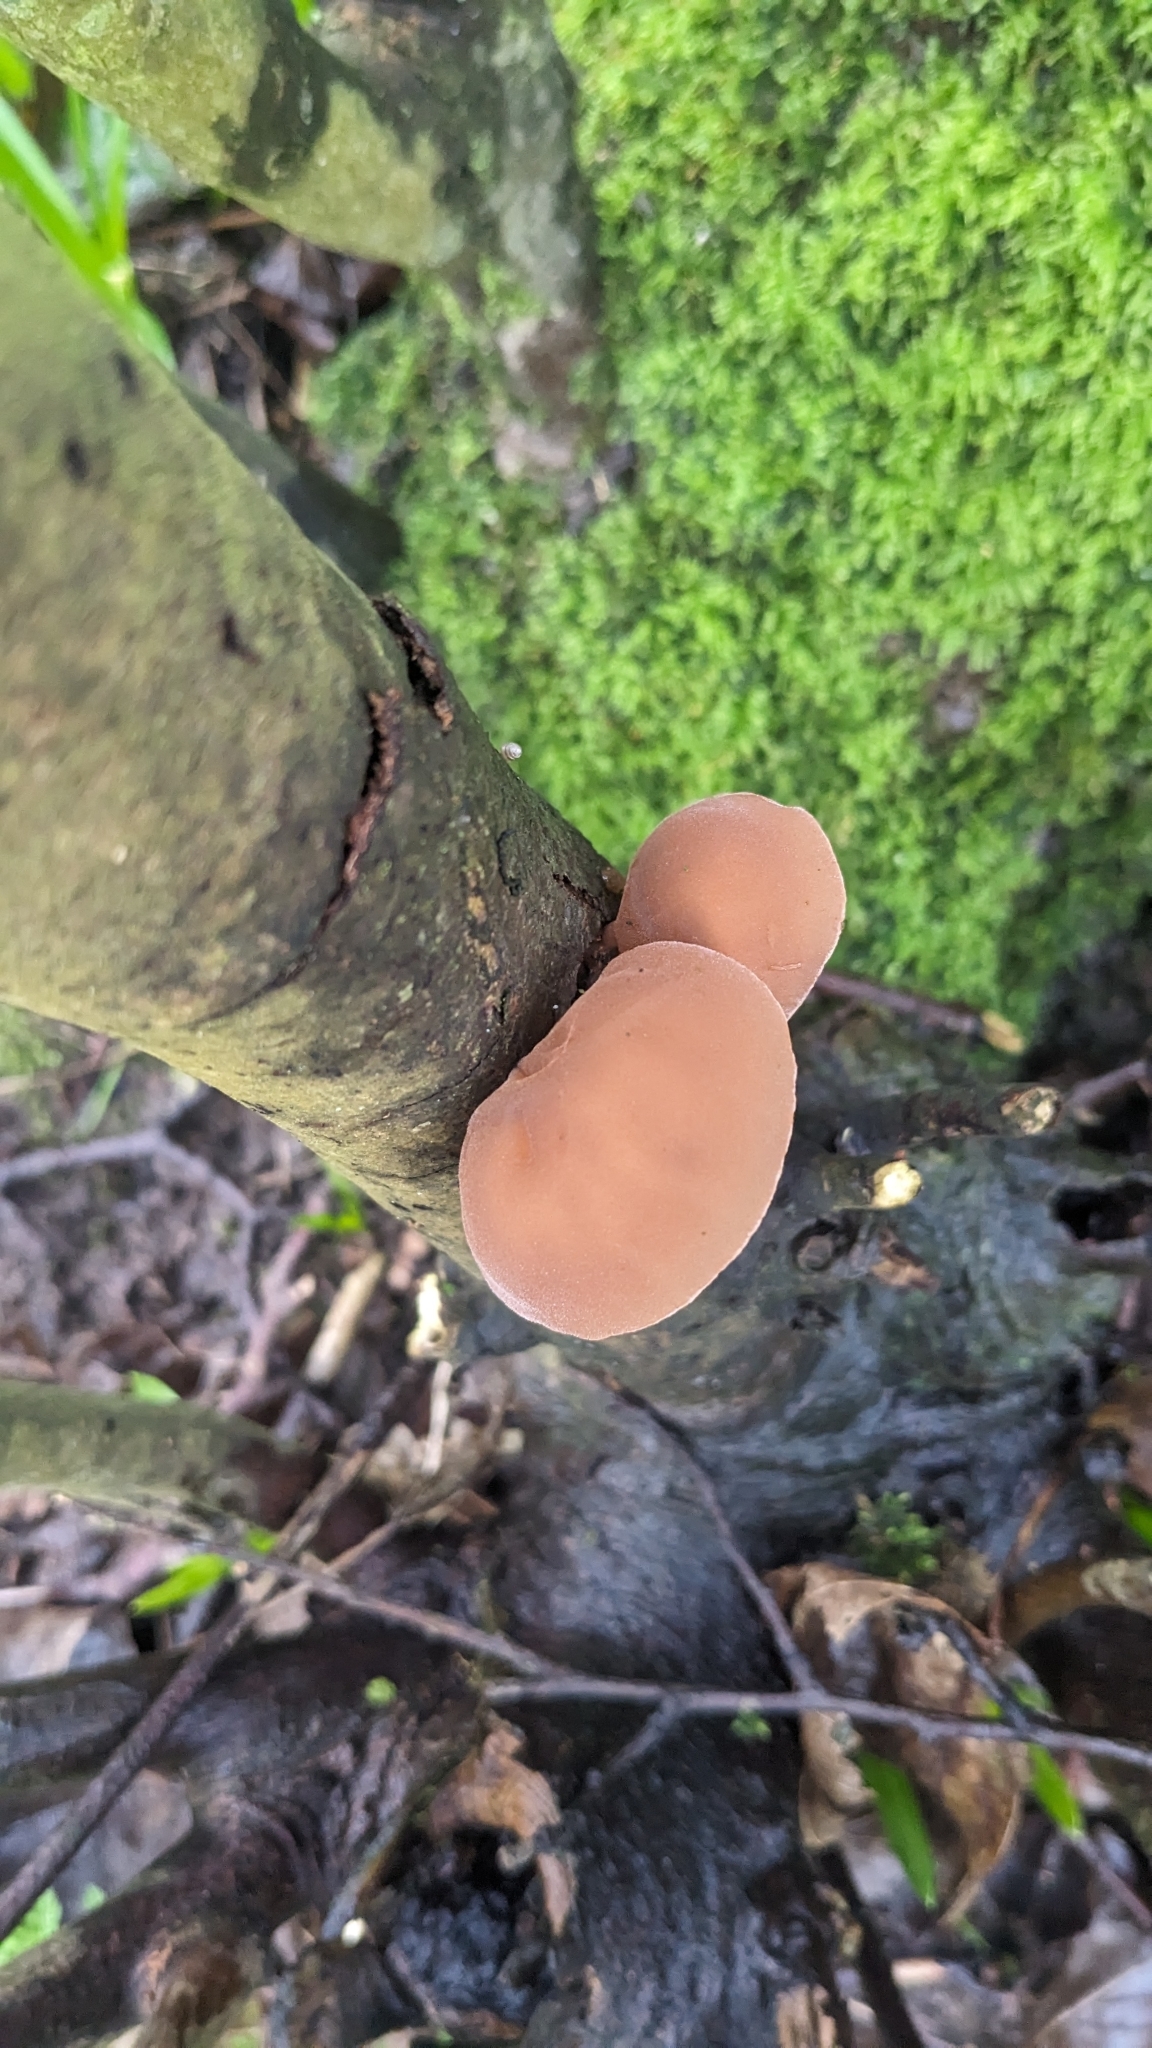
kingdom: Fungi
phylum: Basidiomycota
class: Agaricomycetes
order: Auriculariales
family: Auriculariaceae
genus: Auricularia
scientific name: Auricularia auricula-judae
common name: Jelly ear
